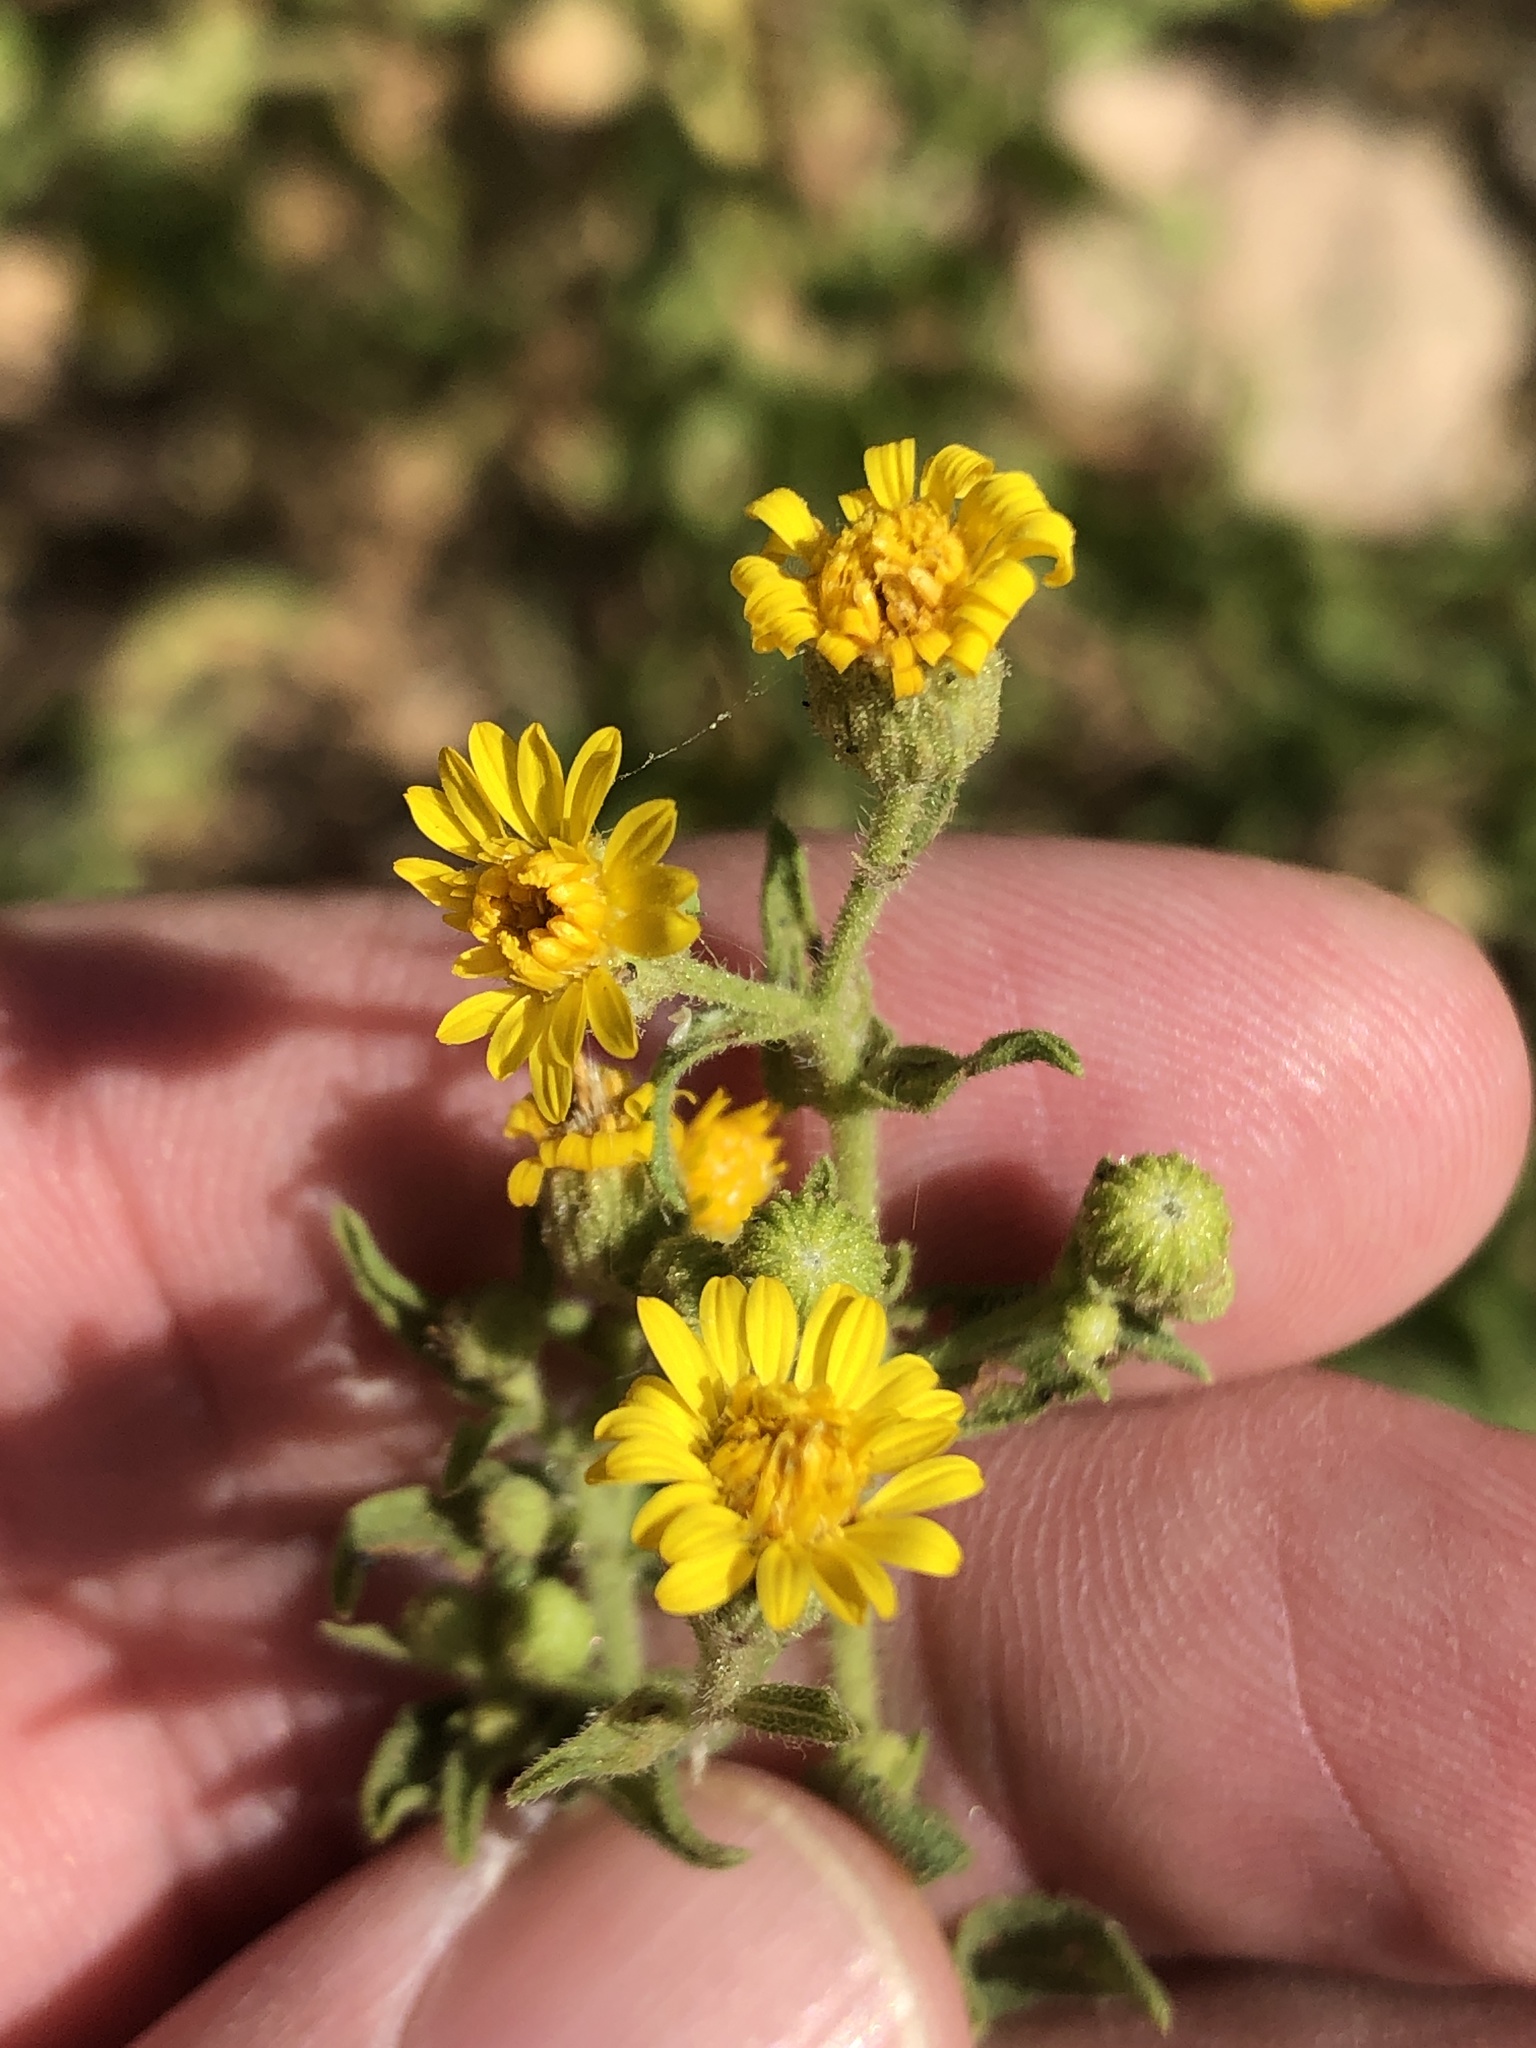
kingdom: Plantae
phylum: Tracheophyta
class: Magnoliopsida
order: Asterales
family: Asteraceae
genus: Heterotheca
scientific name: Heterotheca subaxillaris
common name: Camphorweed
